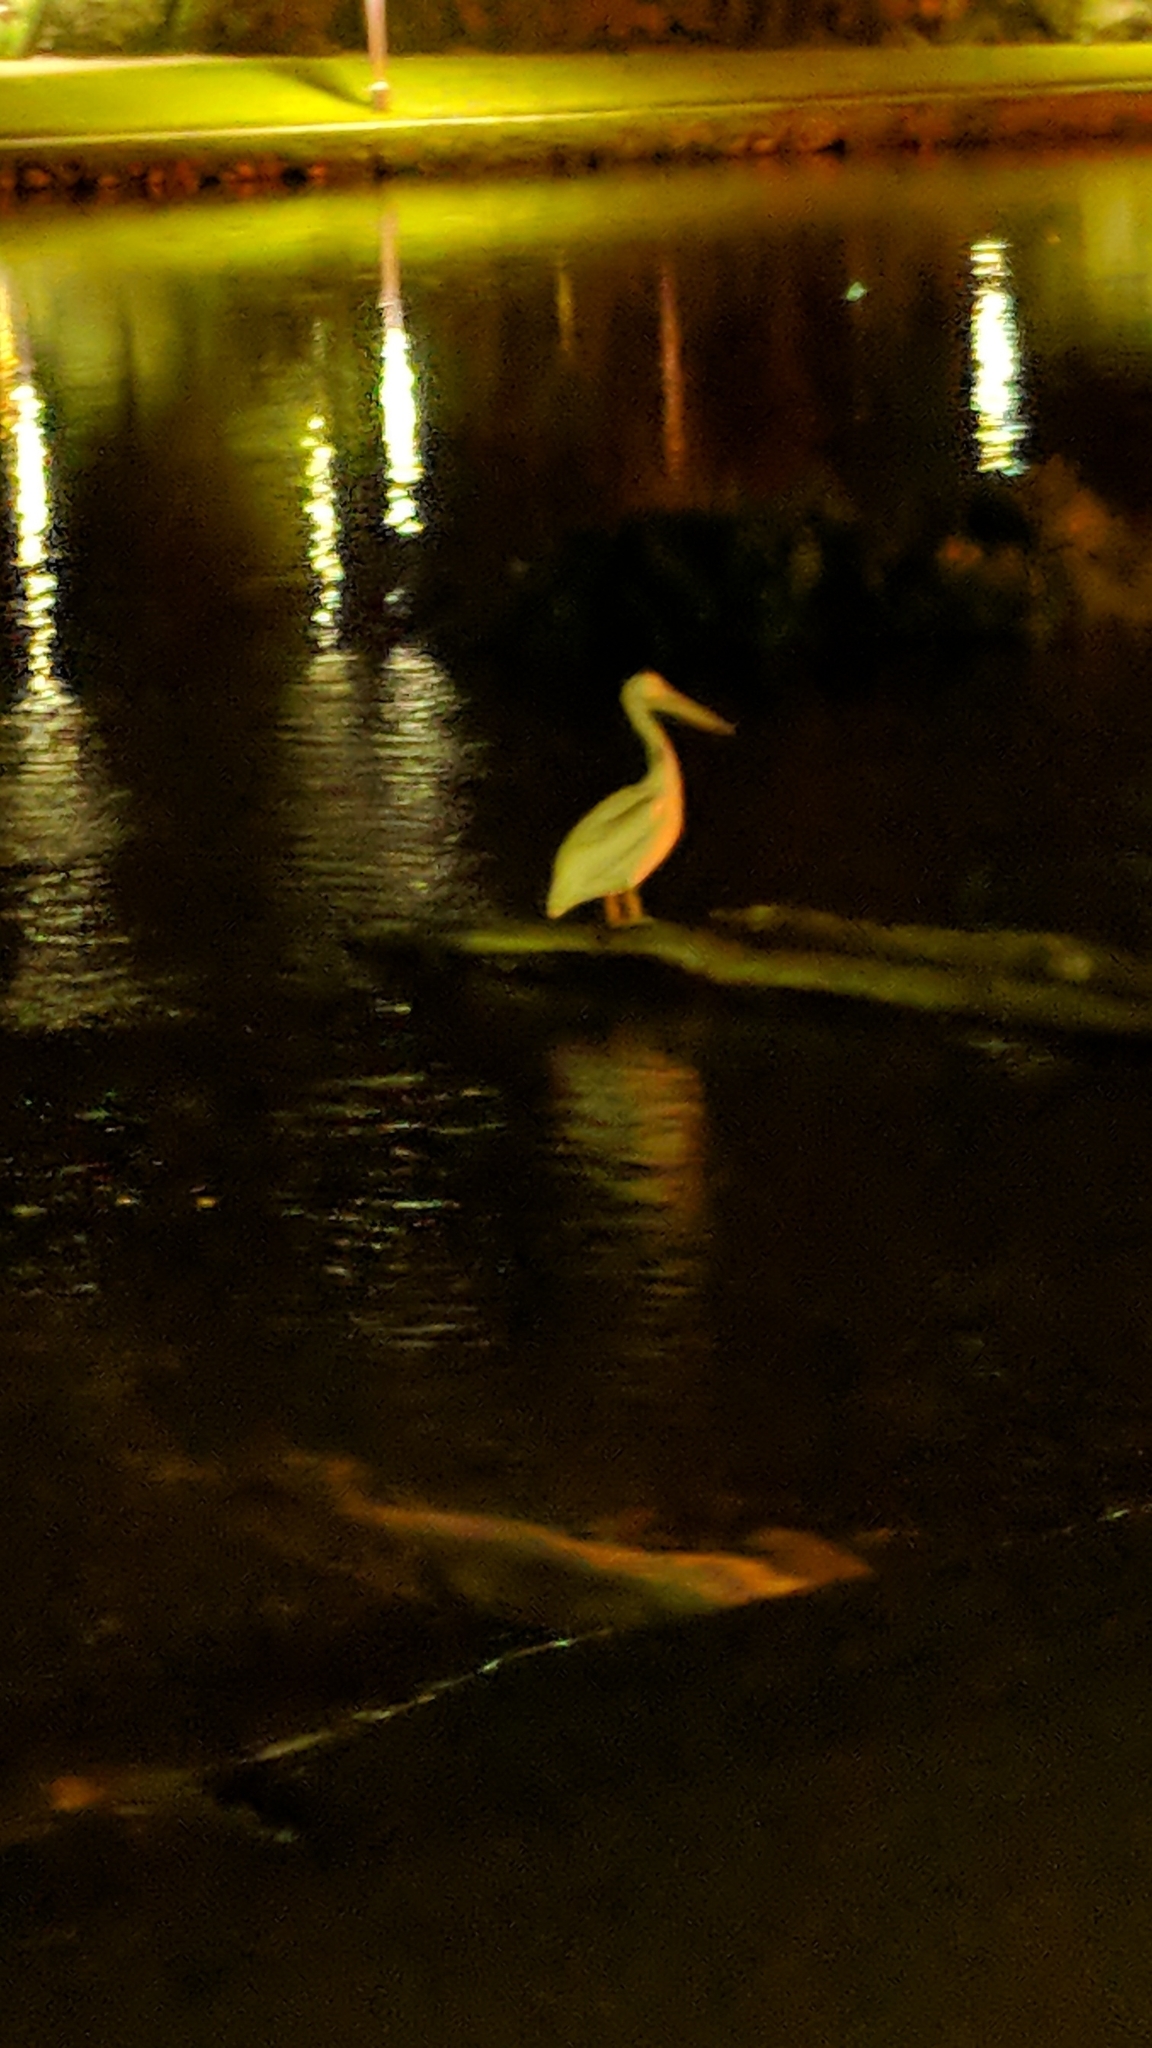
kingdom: Animalia
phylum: Chordata
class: Aves
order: Pelecaniformes
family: Pelecanidae
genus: Pelecanus
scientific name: Pelecanus erythrorhynchos
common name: American white pelican
